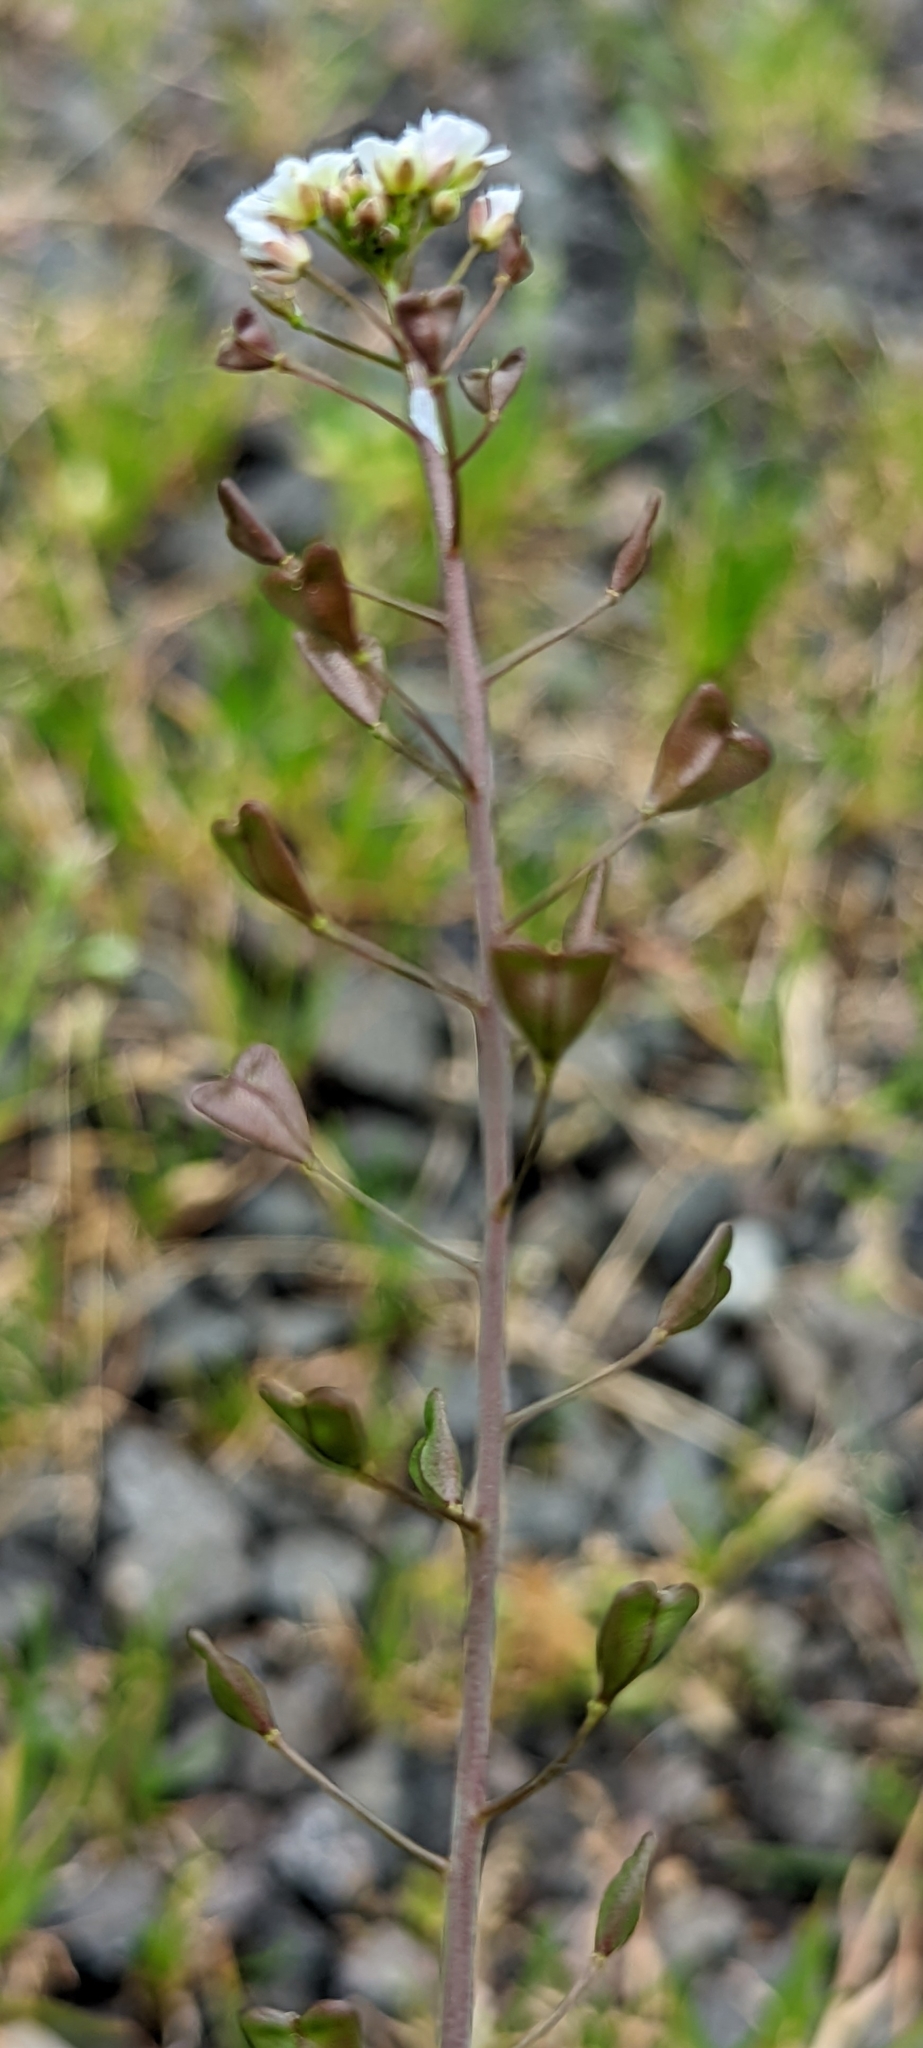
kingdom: Plantae
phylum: Tracheophyta
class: Magnoliopsida
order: Brassicales
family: Brassicaceae
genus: Capsella
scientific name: Capsella bursa-pastoris
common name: Shepherd's purse
